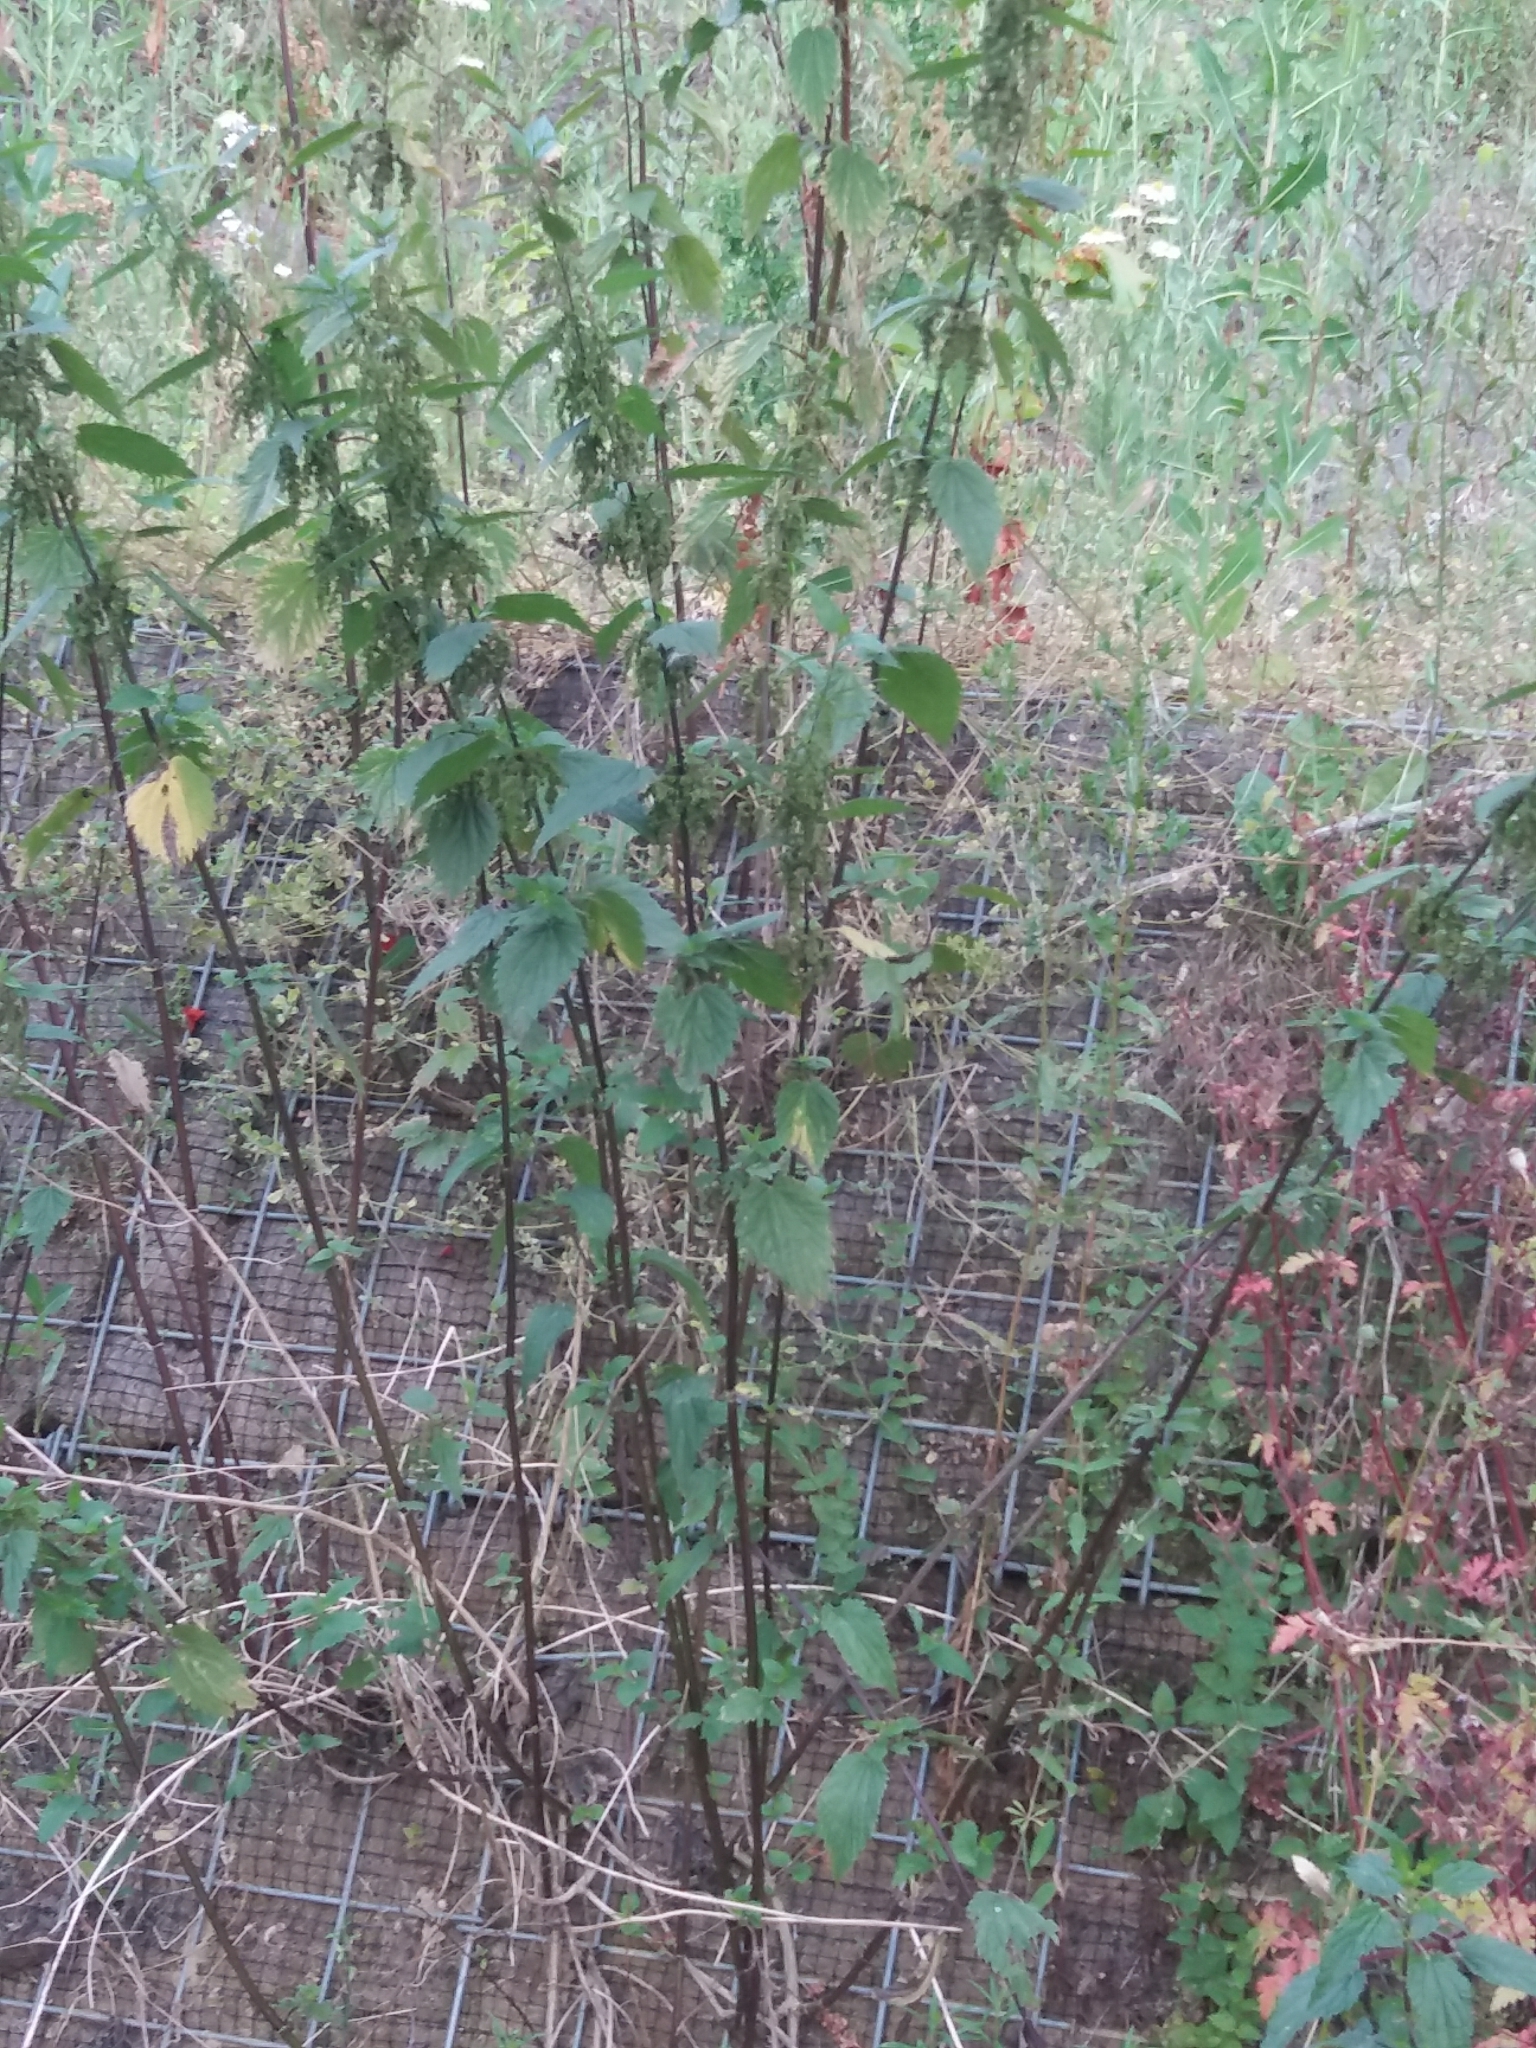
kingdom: Plantae
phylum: Tracheophyta
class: Magnoliopsida
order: Rosales
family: Urticaceae
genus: Urtica
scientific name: Urtica dioica
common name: Common nettle
